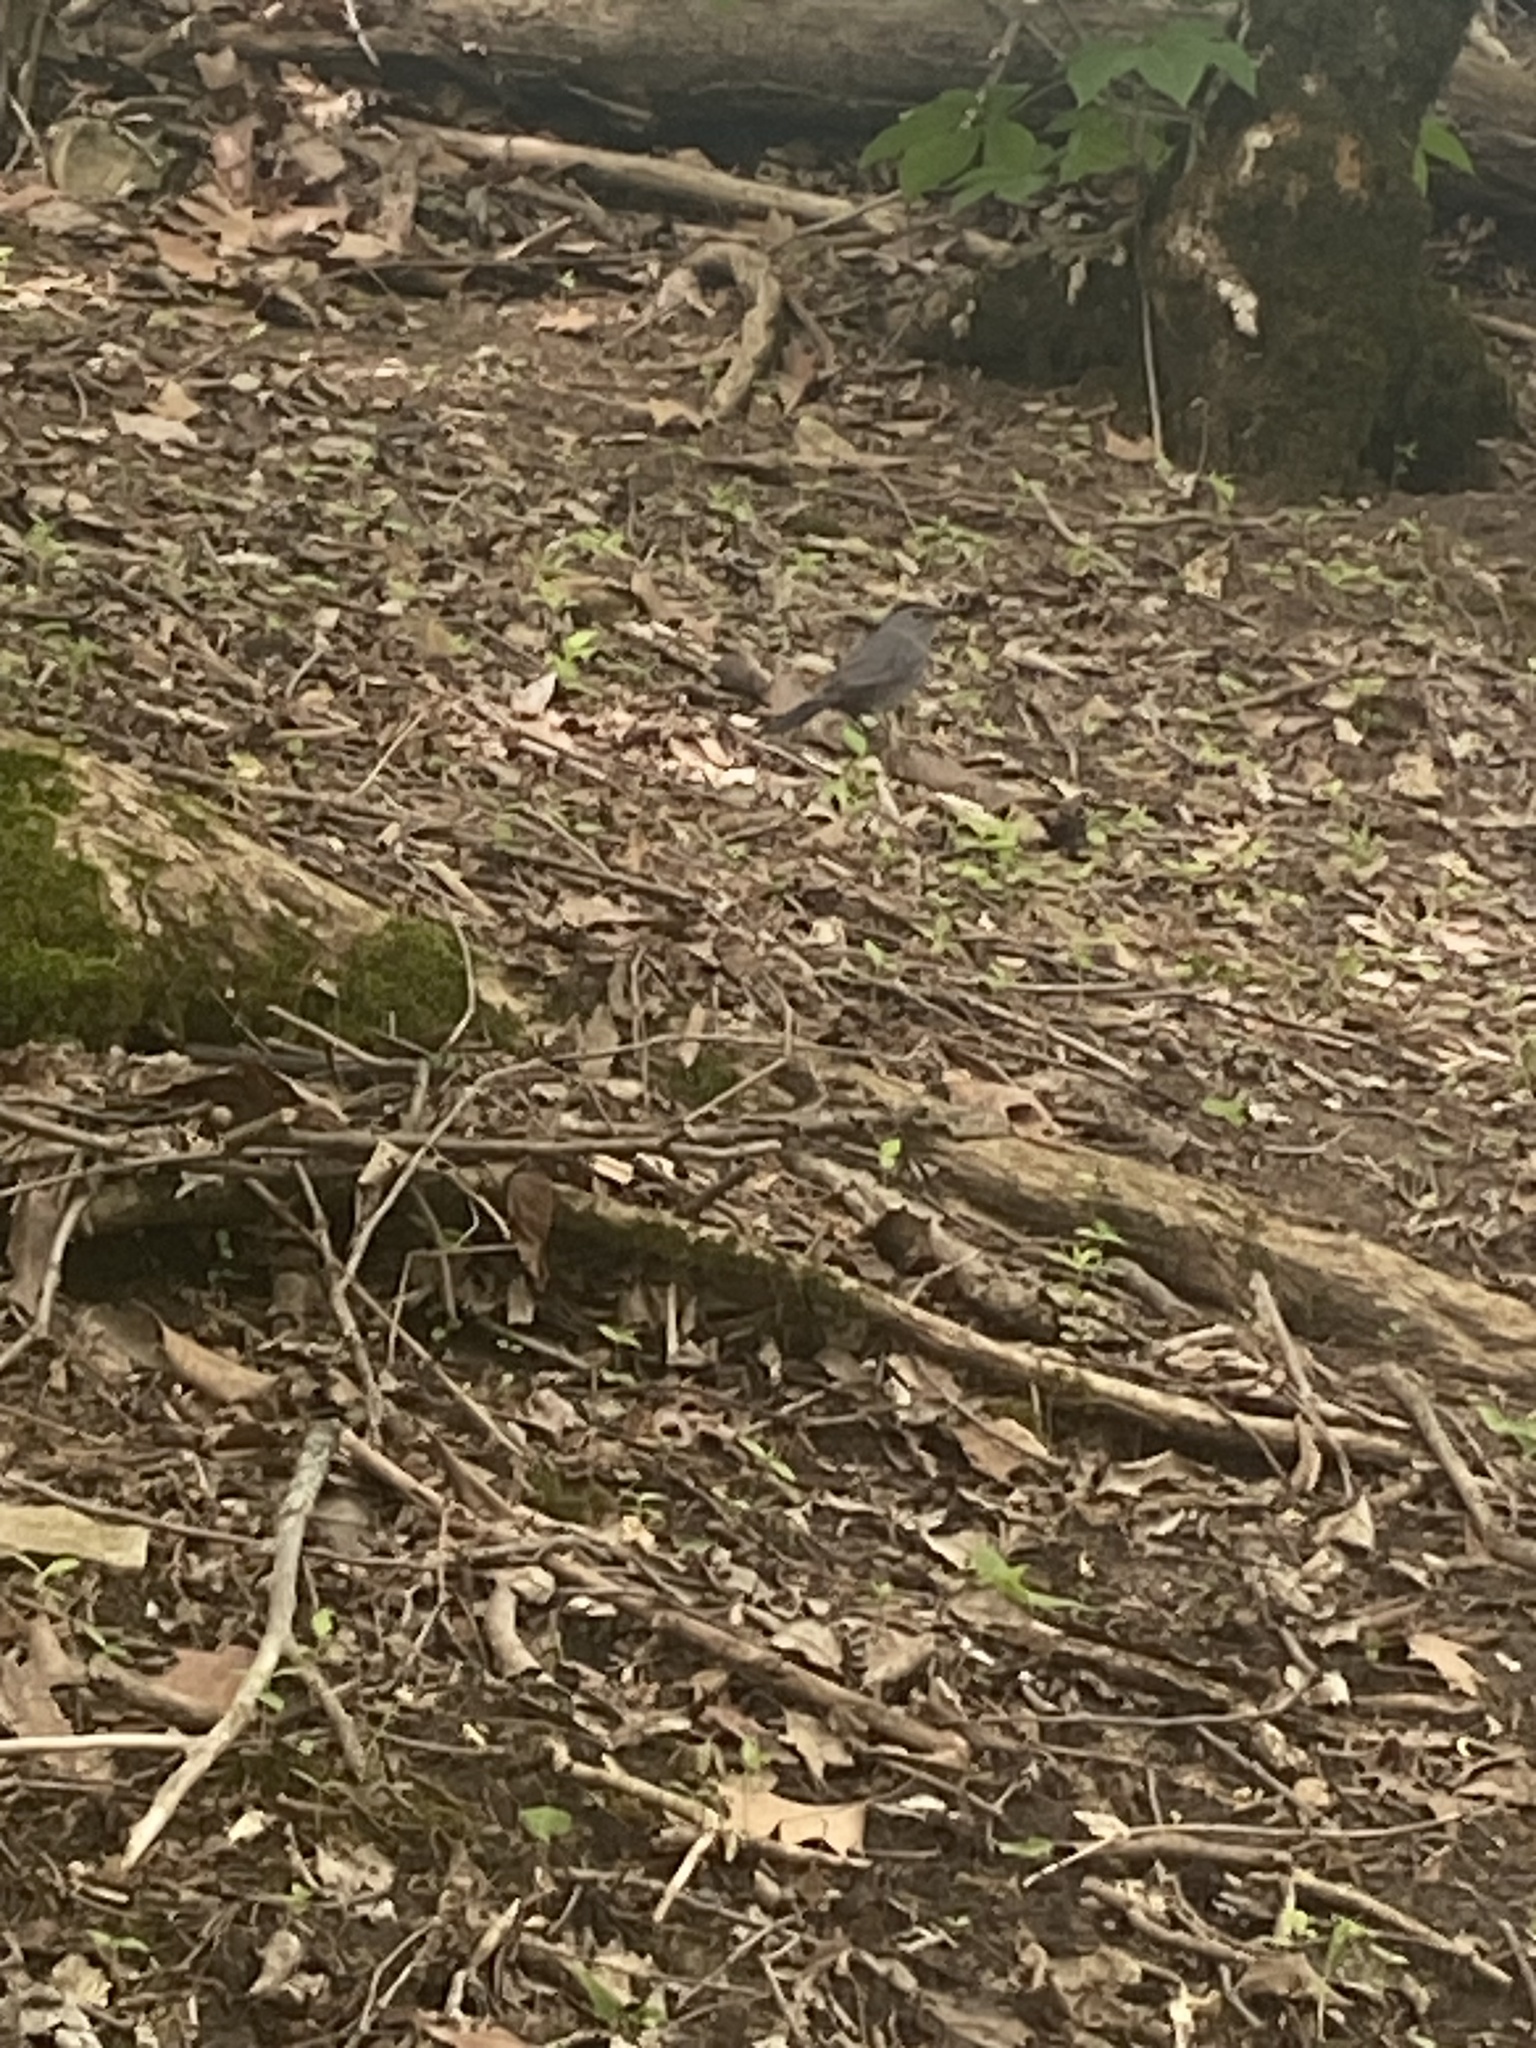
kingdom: Animalia
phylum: Chordata
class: Aves
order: Passeriformes
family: Mimidae
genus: Dumetella
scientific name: Dumetella carolinensis
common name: Gray catbird
